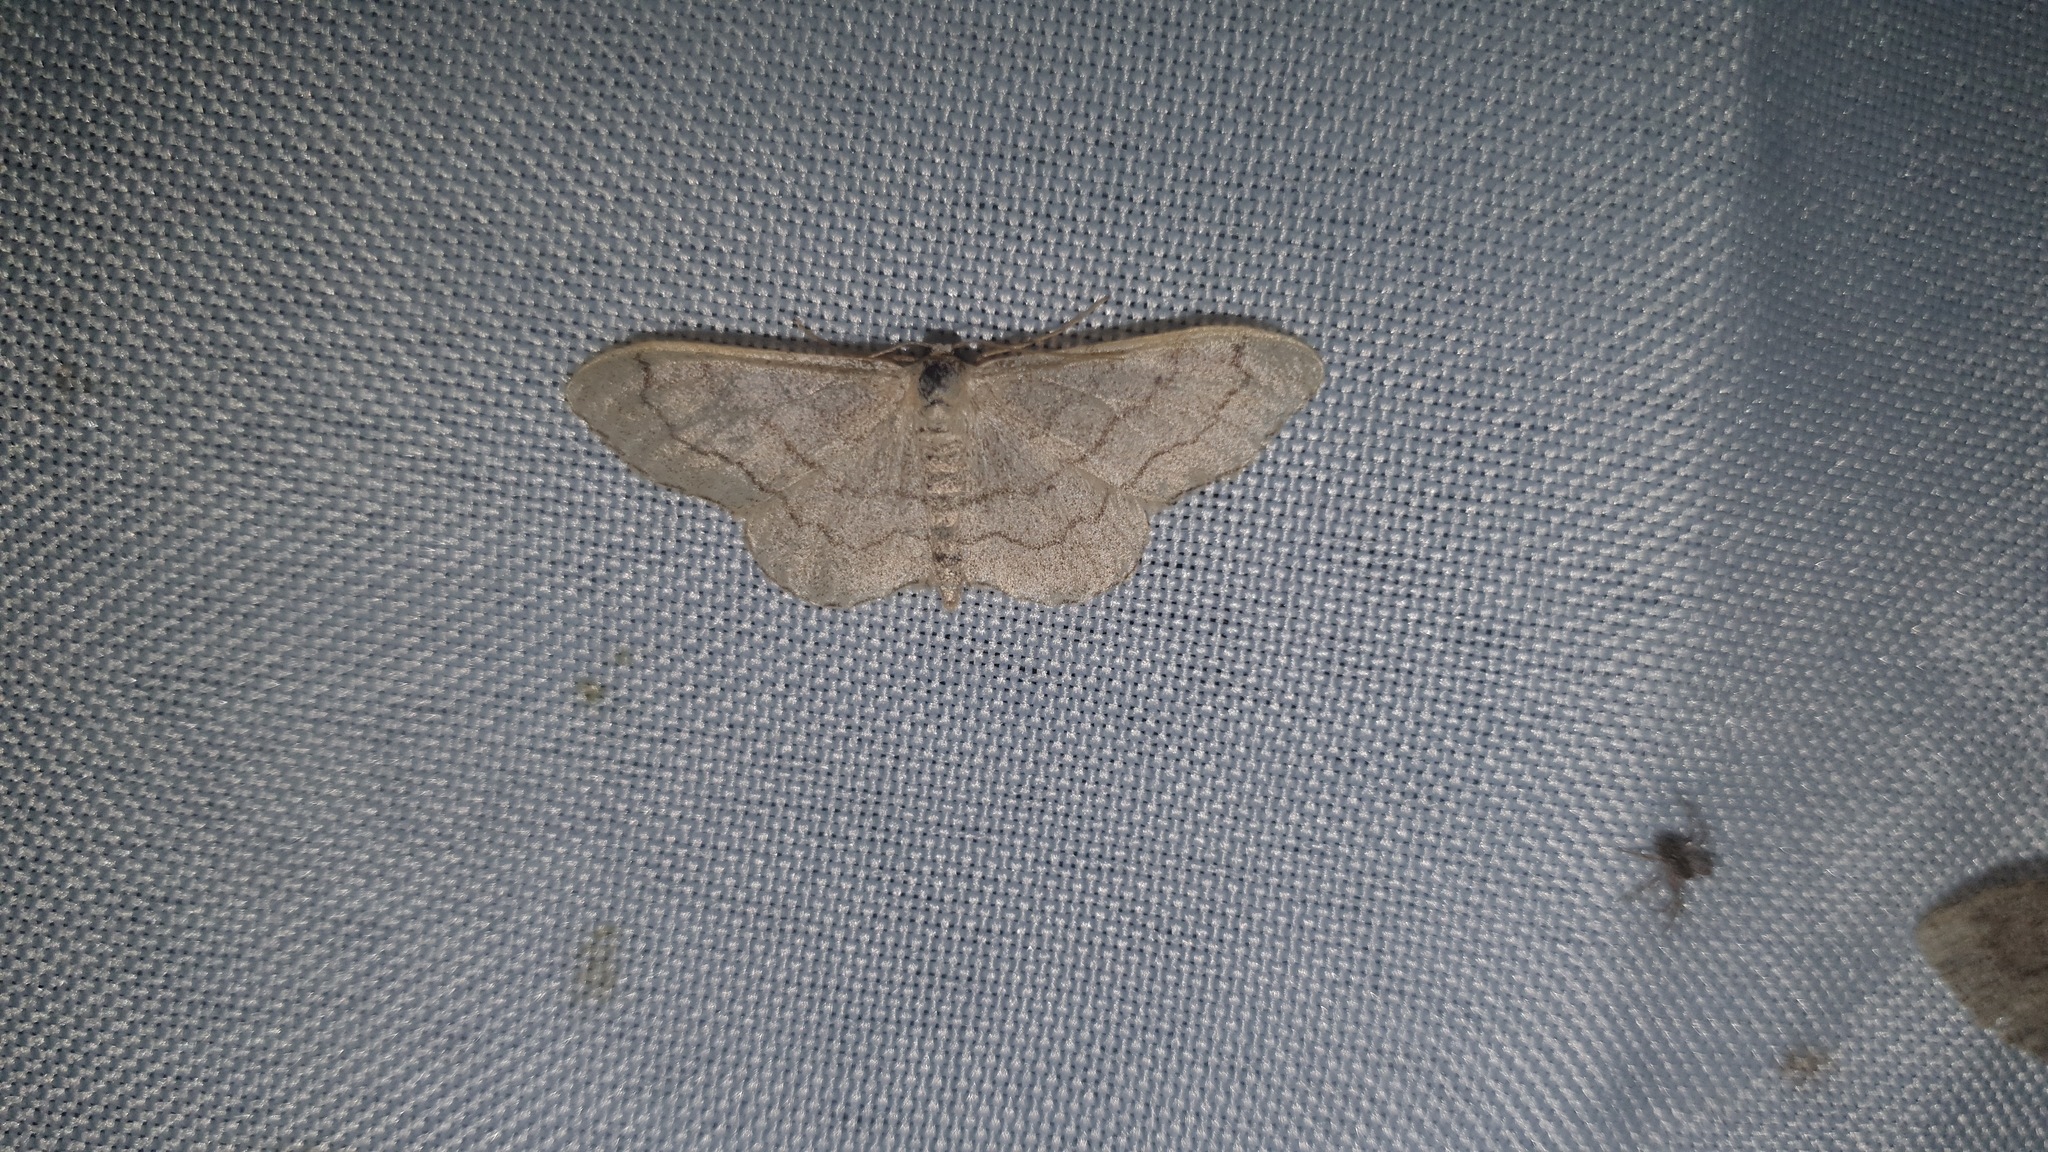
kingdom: Animalia
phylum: Arthropoda
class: Insecta
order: Lepidoptera
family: Geometridae
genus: Idaea
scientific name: Idaea aversata
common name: Riband wave
